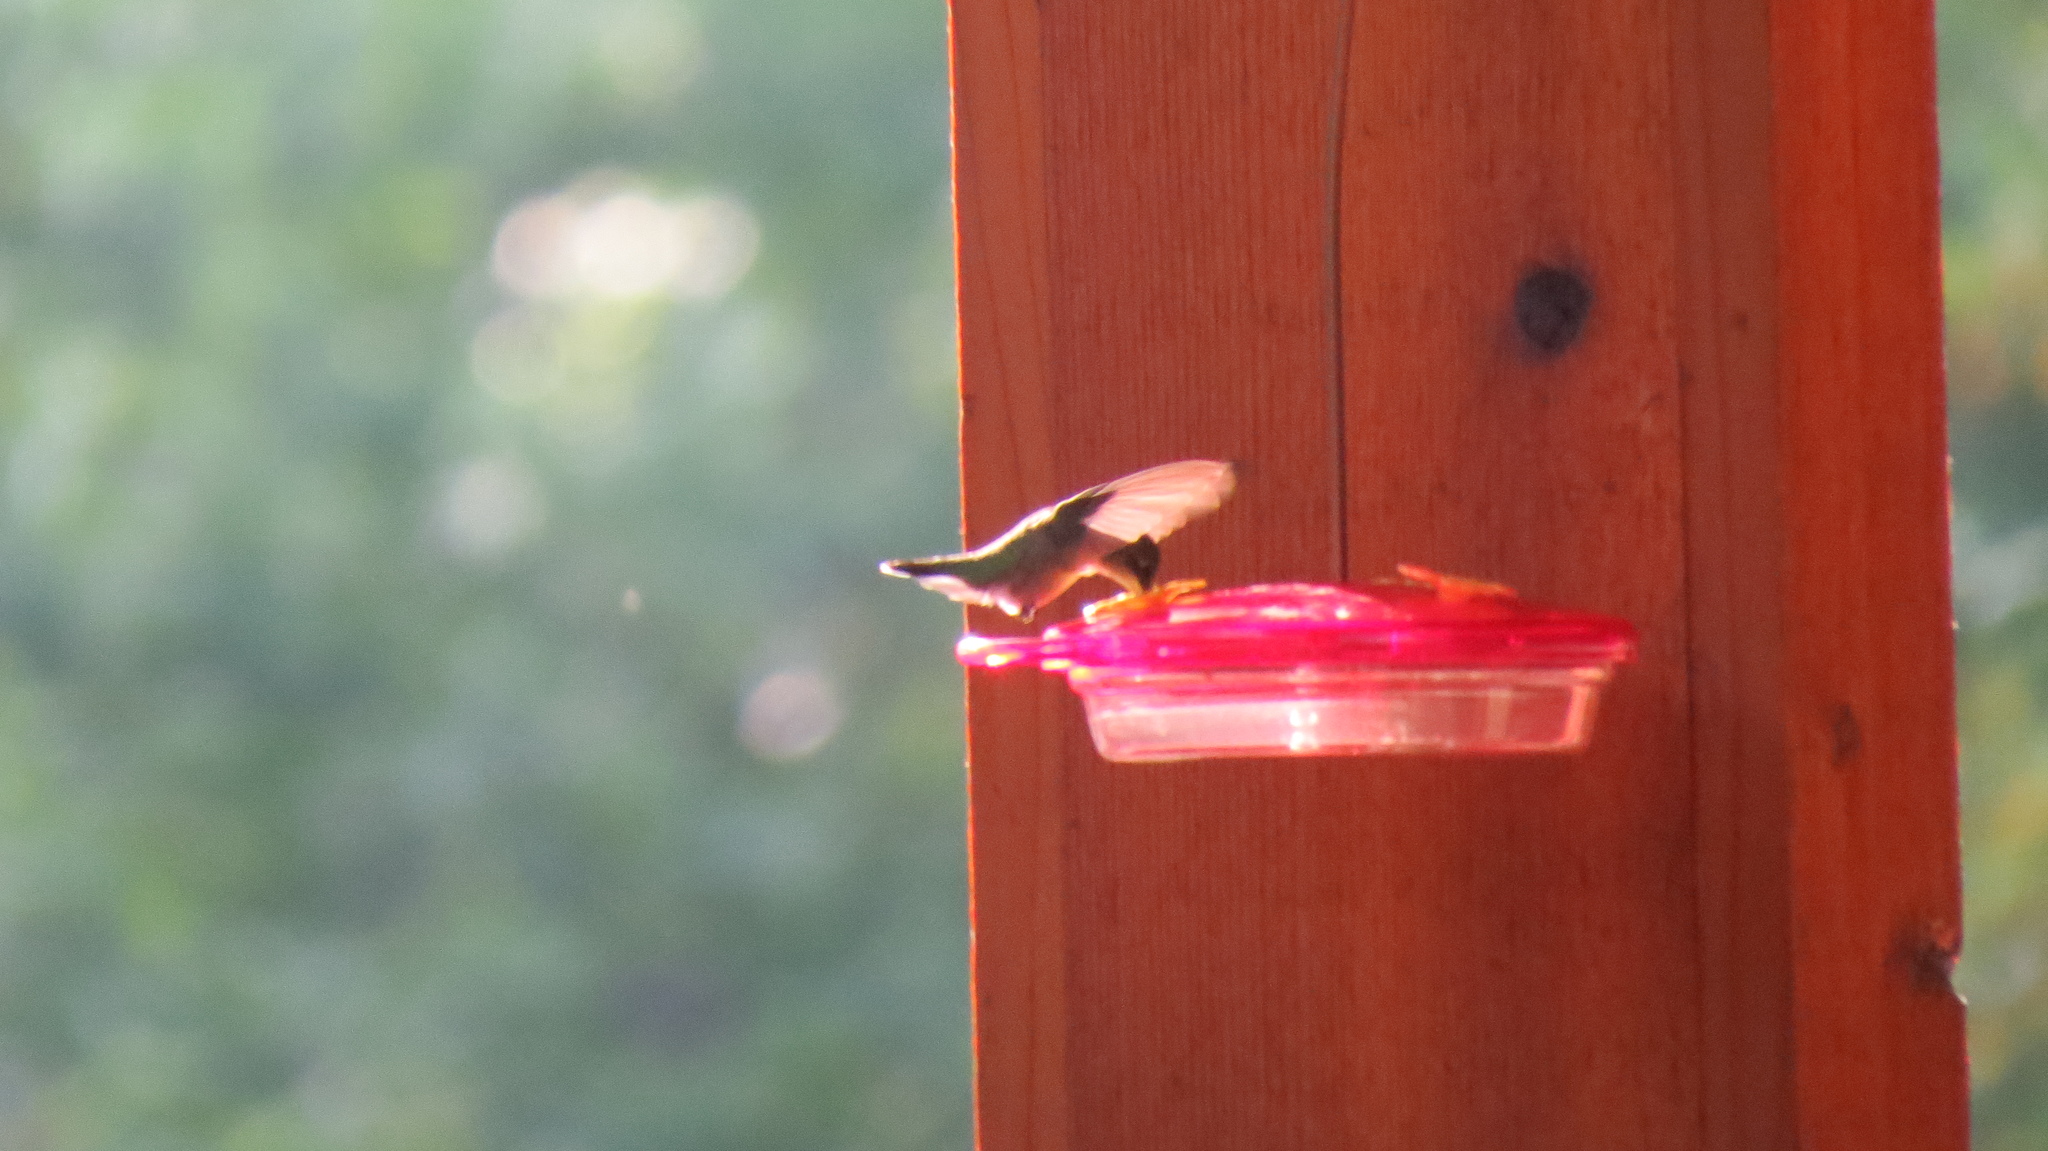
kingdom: Animalia
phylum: Chordata
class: Aves
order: Apodiformes
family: Trochilidae
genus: Archilochus
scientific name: Archilochus colubris
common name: Ruby-throated hummingbird
